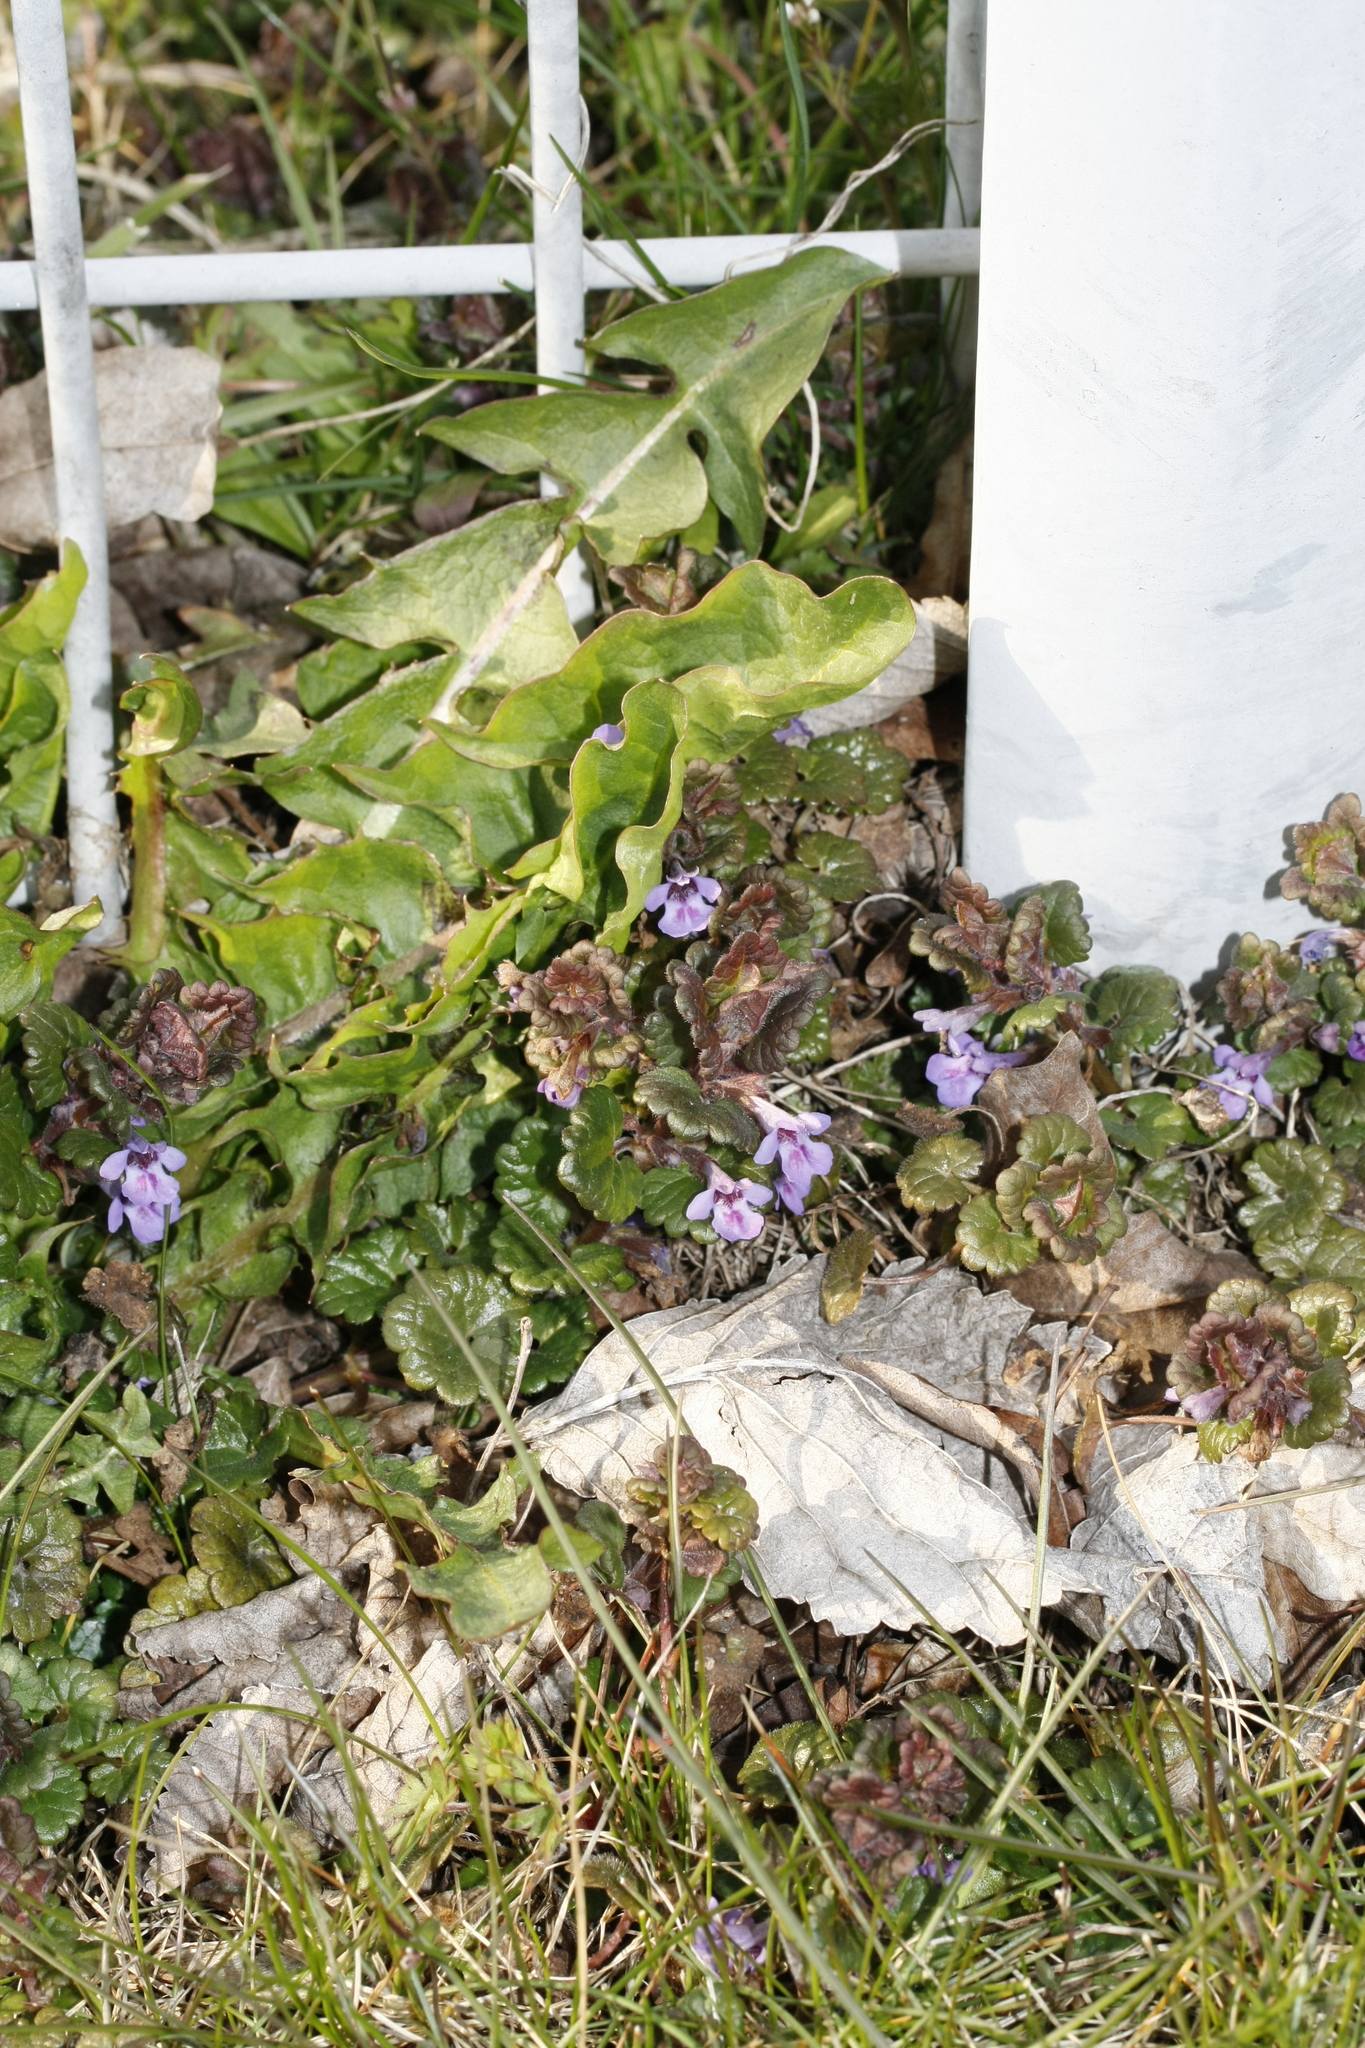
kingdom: Plantae
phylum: Tracheophyta
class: Magnoliopsida
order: Lamiales
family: Lamiaceae
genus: Glechoma
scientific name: Glechoma hederacea
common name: Ground ivy
